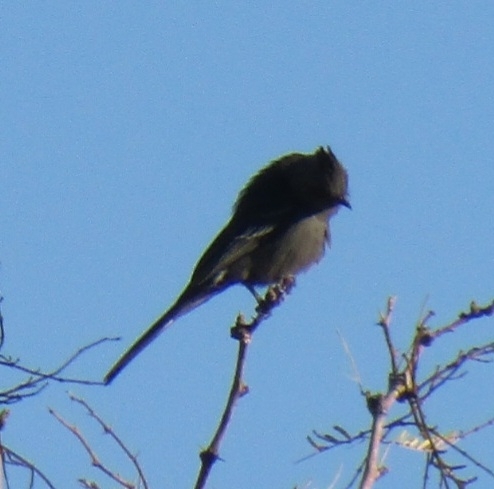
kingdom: Animalia
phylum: Chordata
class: Aves
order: Passeriformes
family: Ptilogonatidae
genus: Phainopepla
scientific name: Phainopepla nitens
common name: Phainopepla
